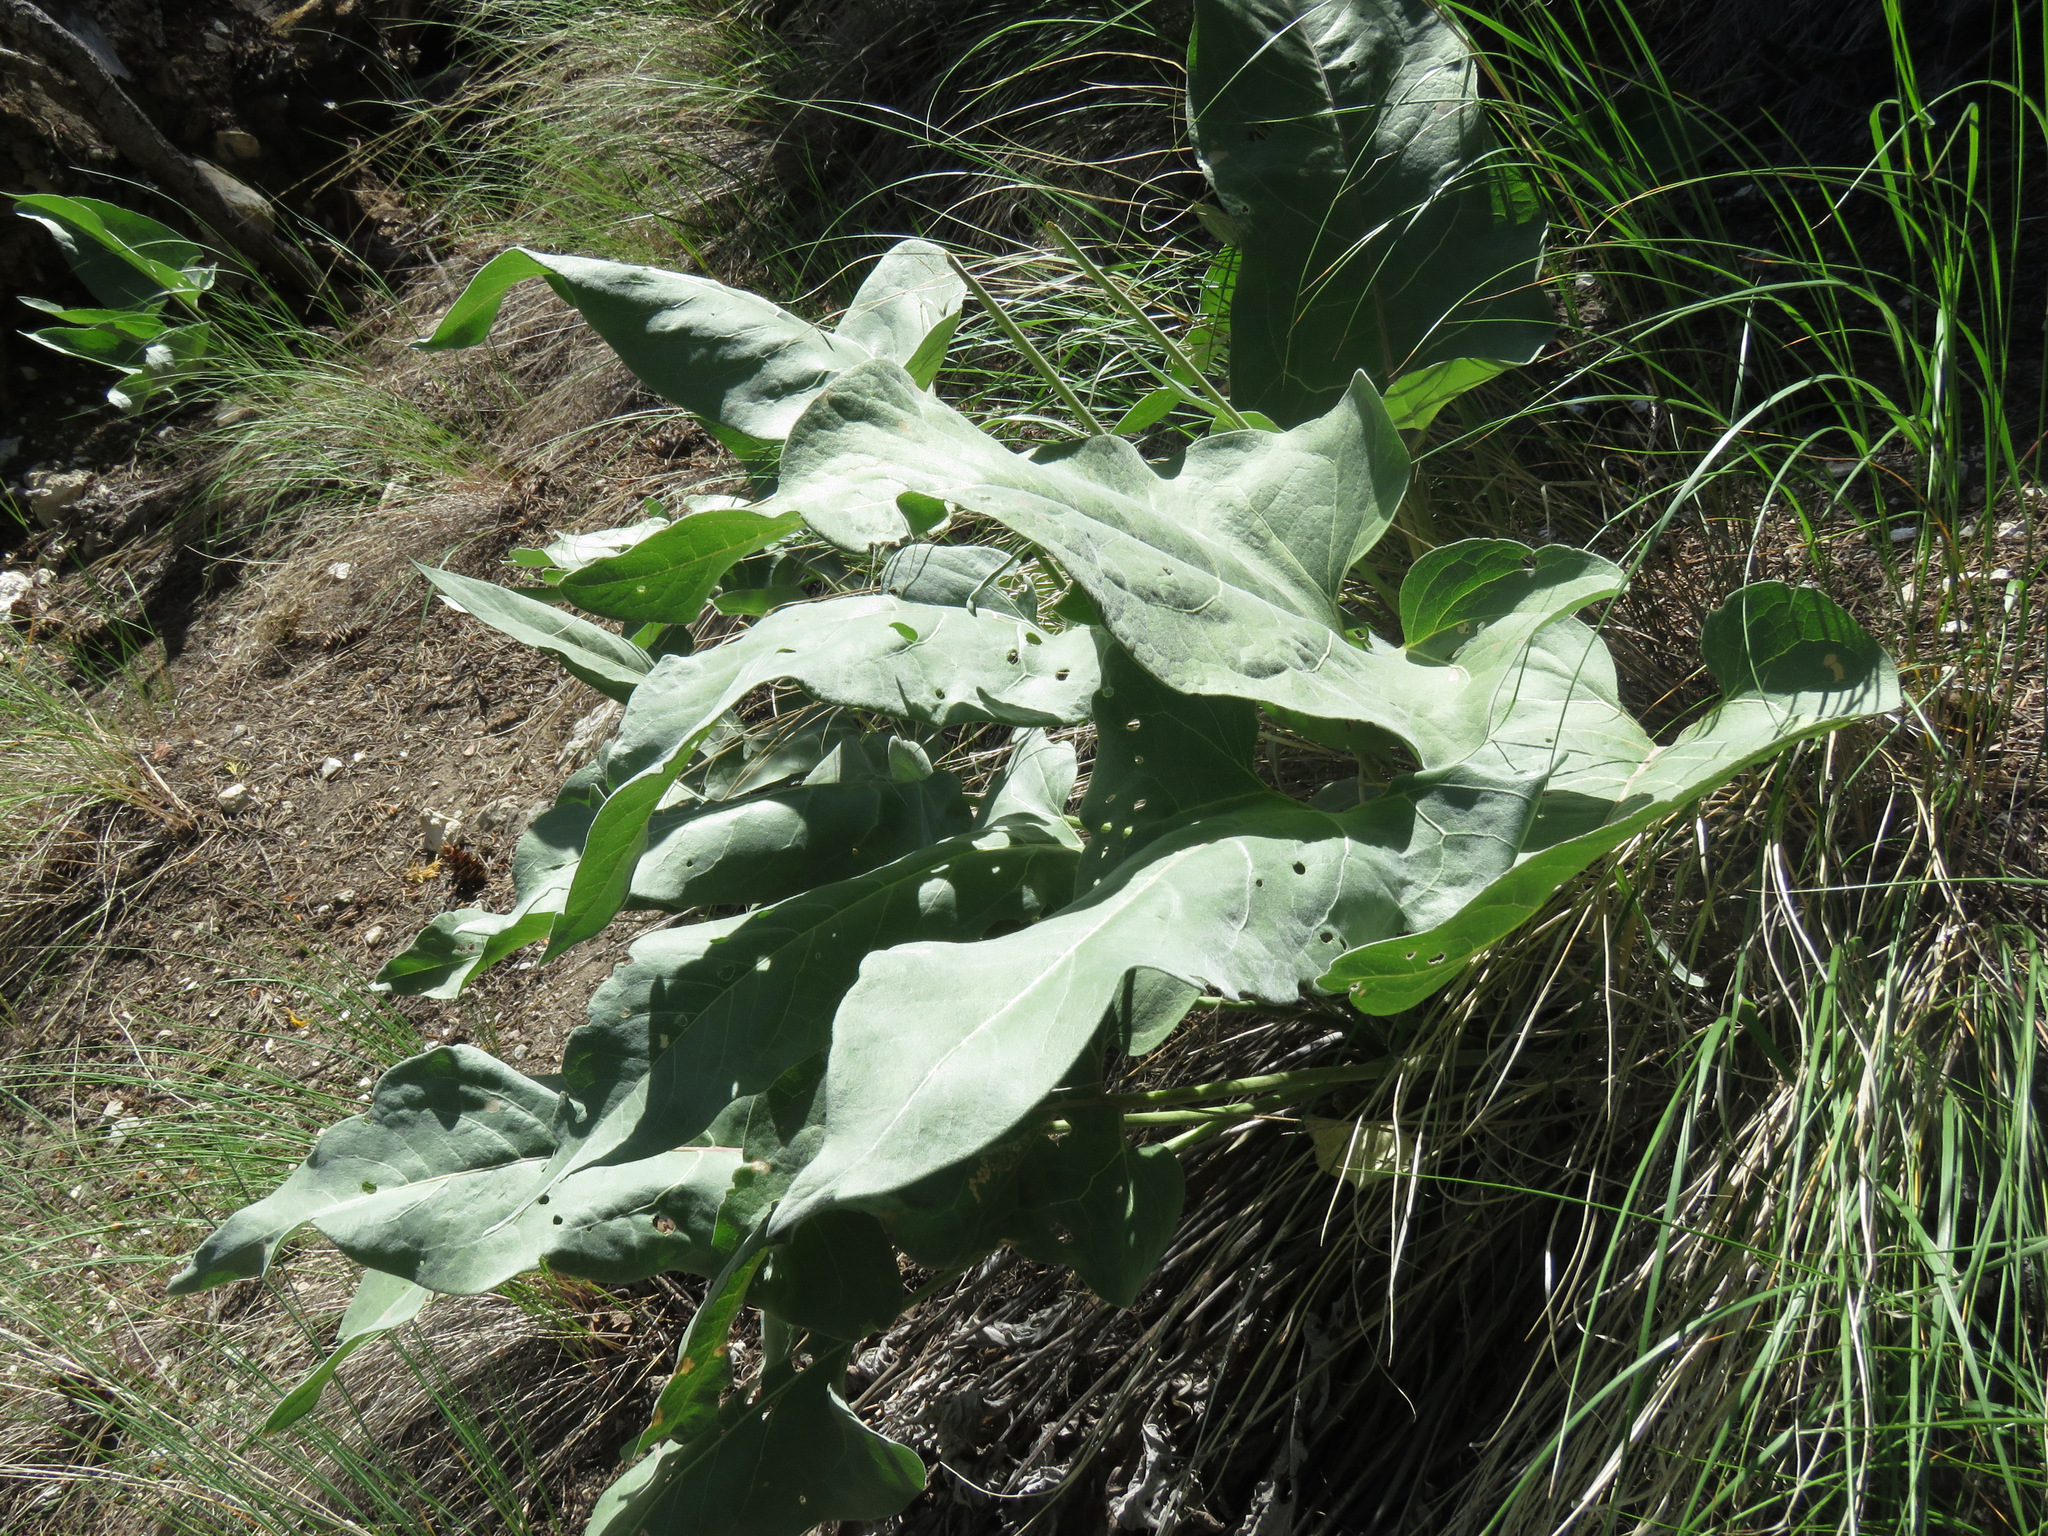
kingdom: Plantae
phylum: Tracheophyta
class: Magnoliopsida
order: Asterales
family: Asteraceae
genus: Wyethia
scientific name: Wyethia sagittata
